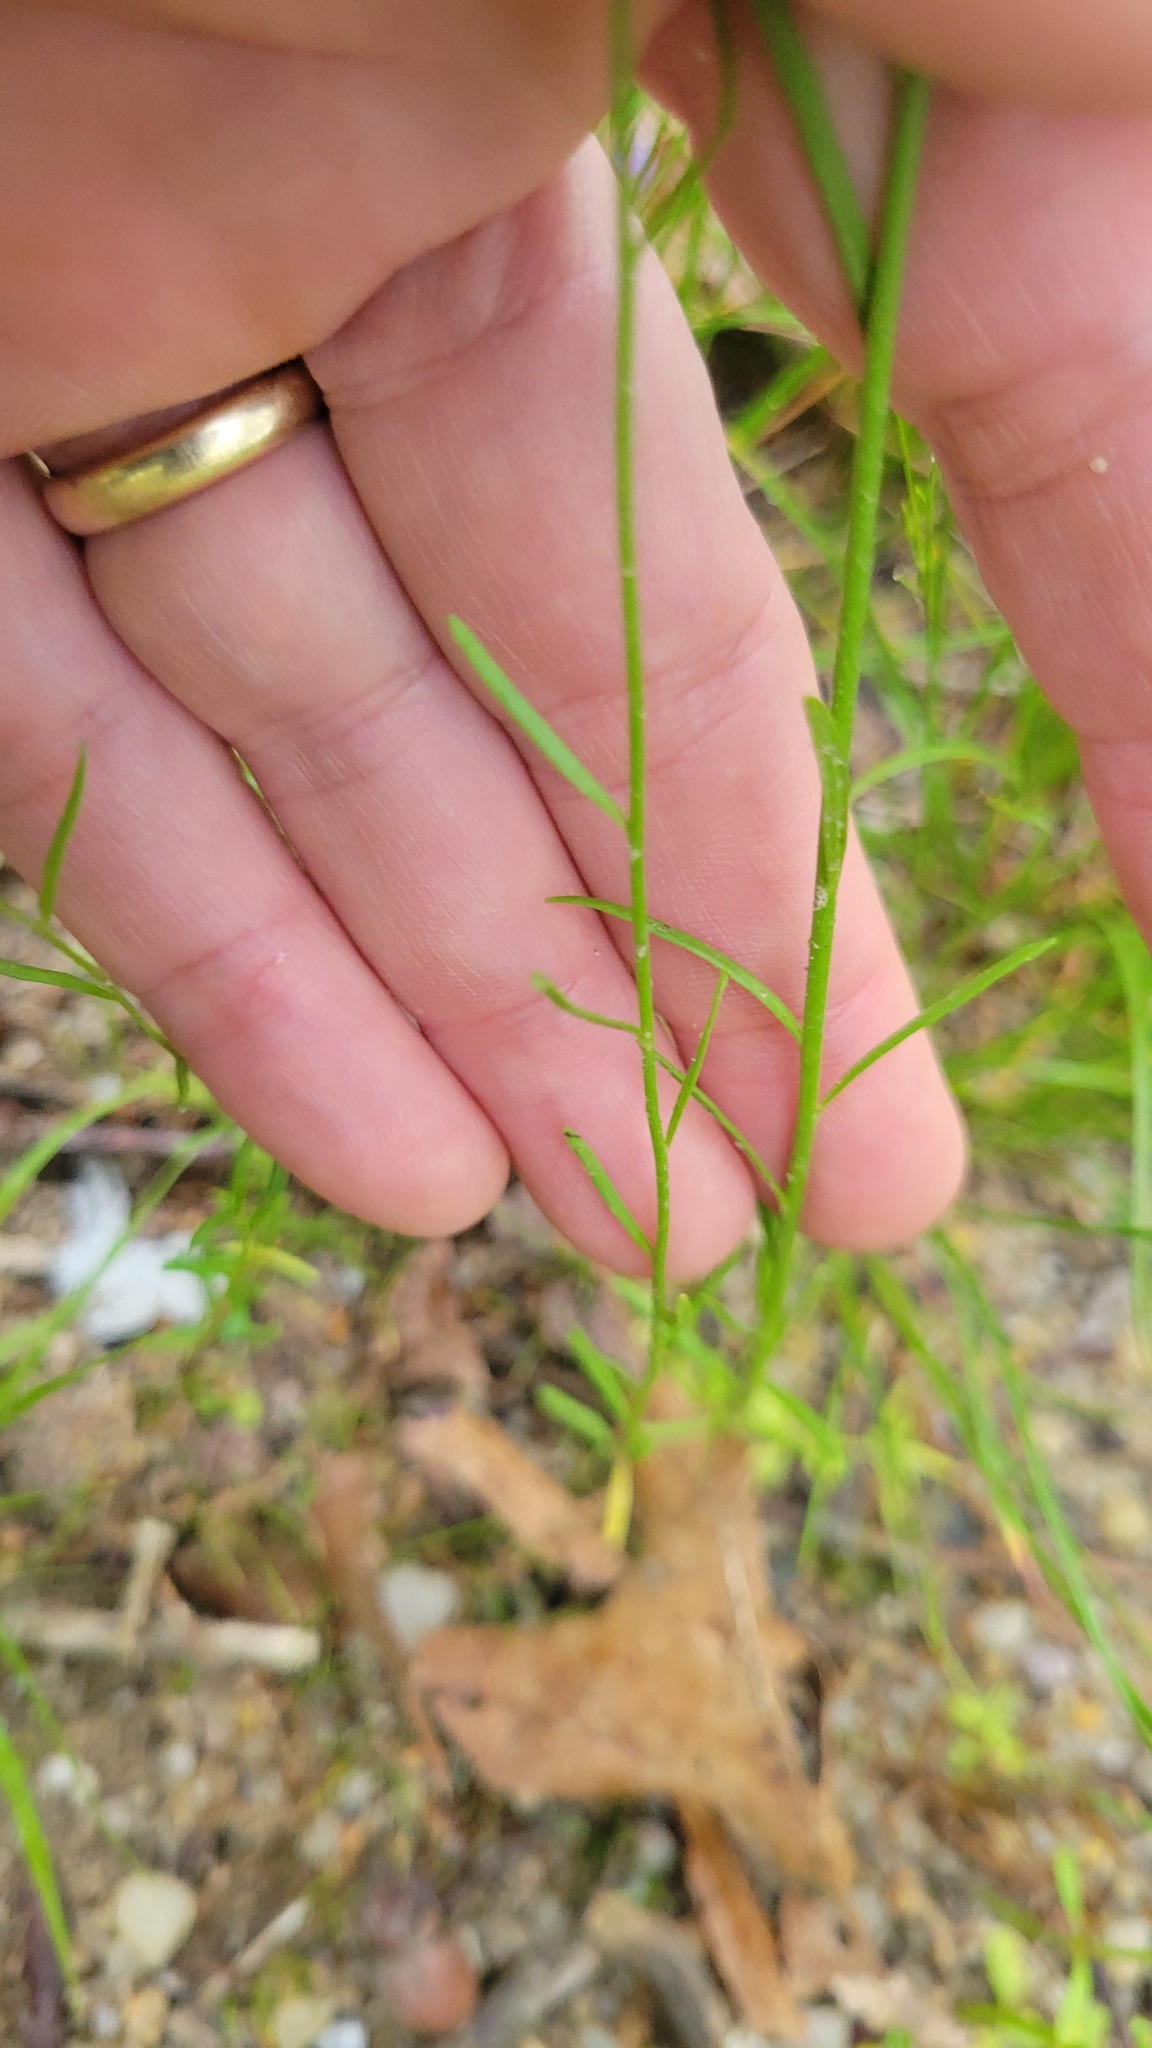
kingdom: Plantae
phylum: Tracheophyta
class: Magnoliopsida
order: Lamiales
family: Plantaginaceae
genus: Nuttallanthus
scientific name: Nuttallanthus canadensis
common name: Blue toadflax
